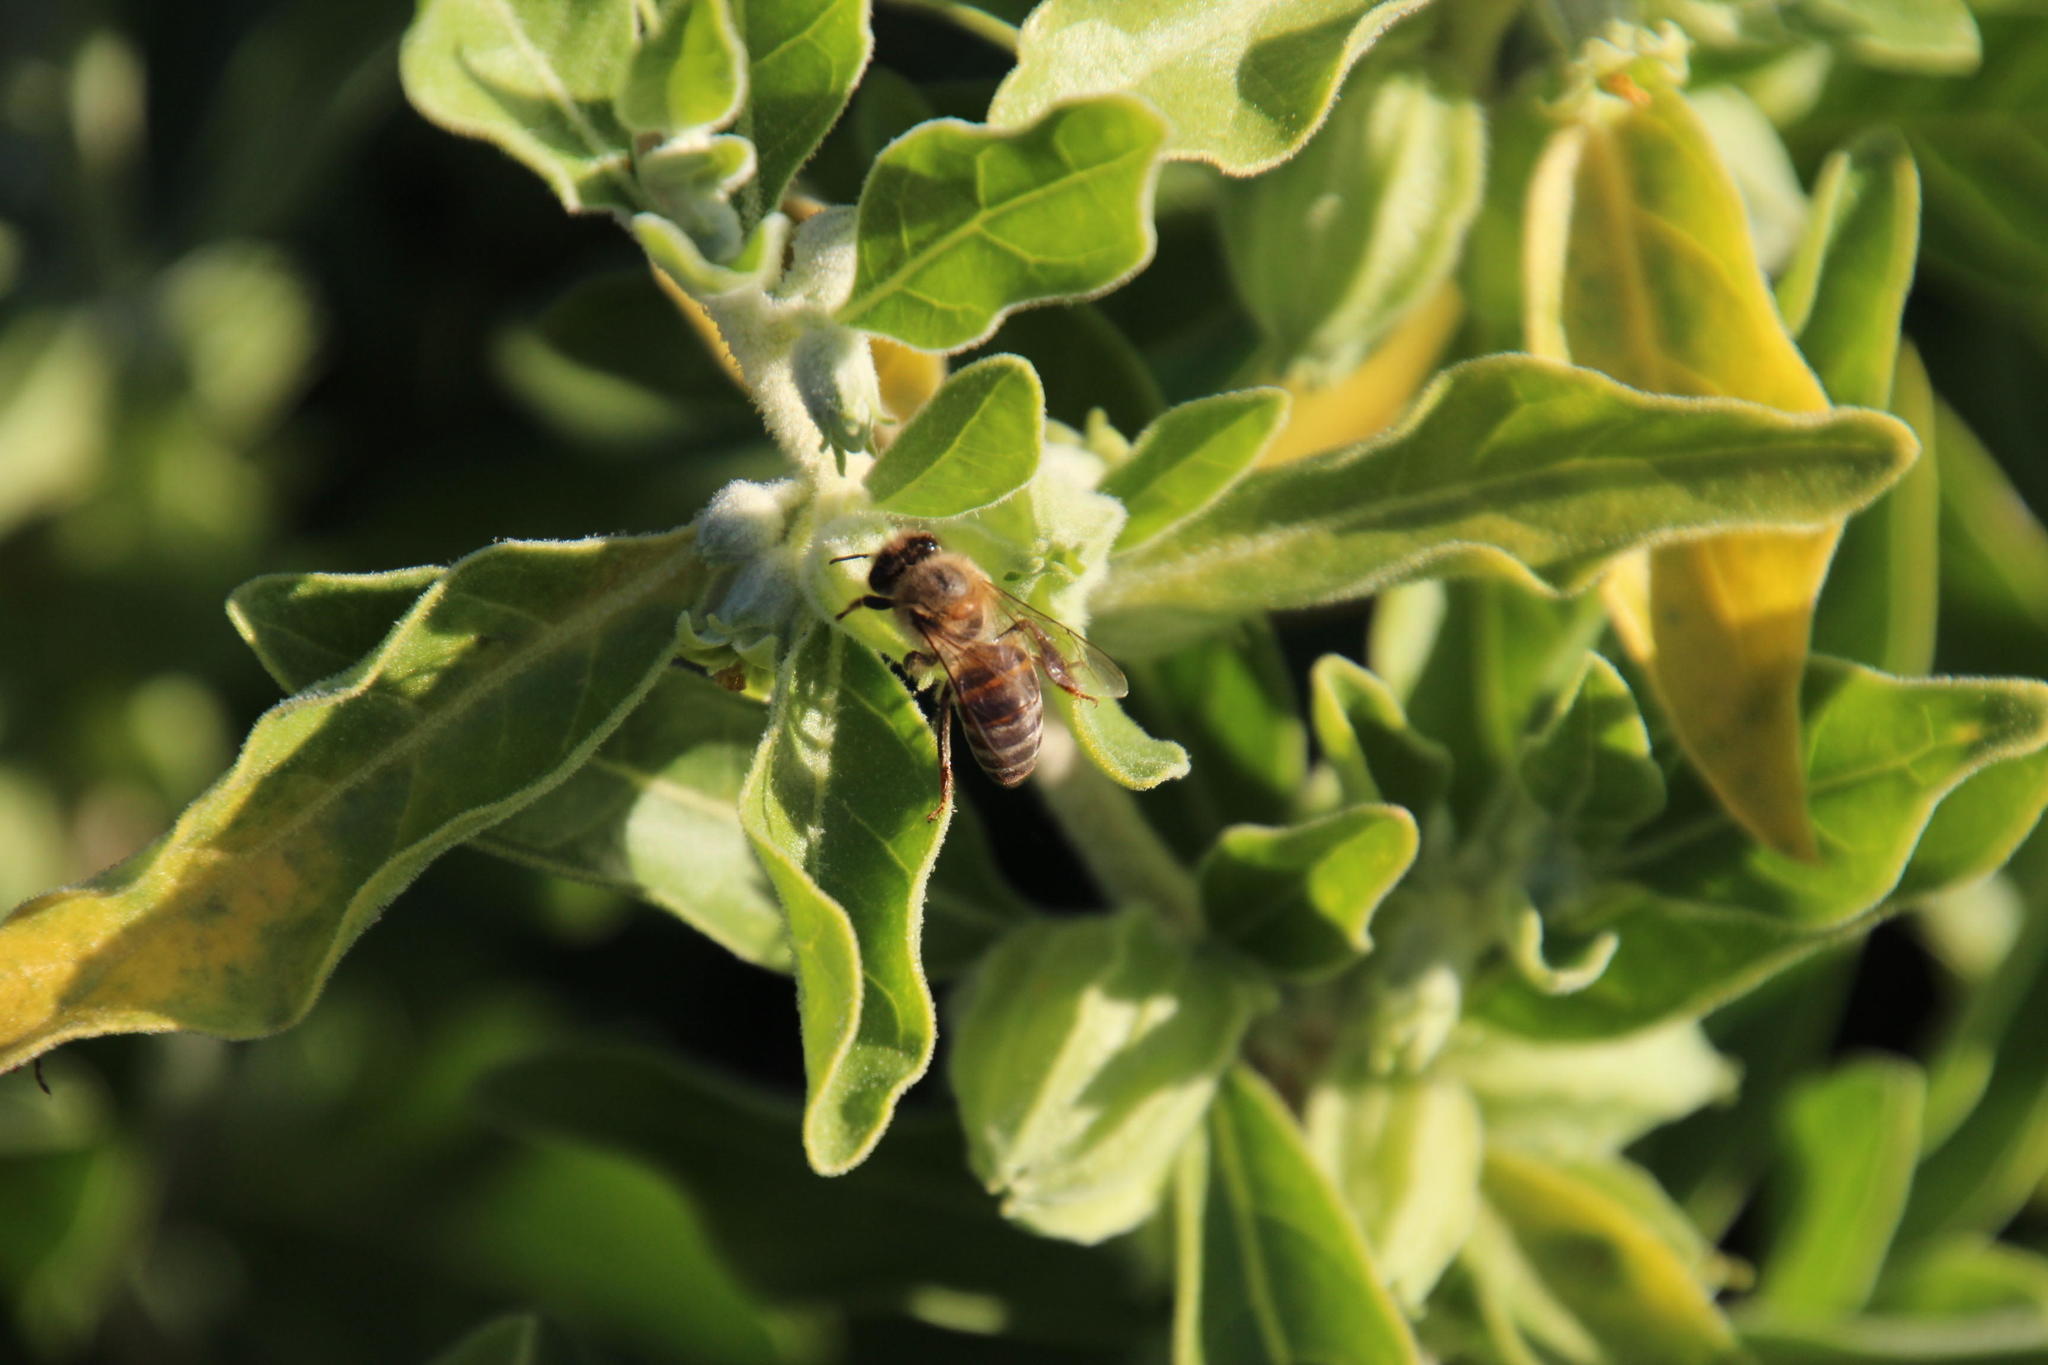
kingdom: Animalia
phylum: Arthropoda
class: Insecta
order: Hymenoptera
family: Apidae
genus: Apis
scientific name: Apis mellifera
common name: Honey bee
